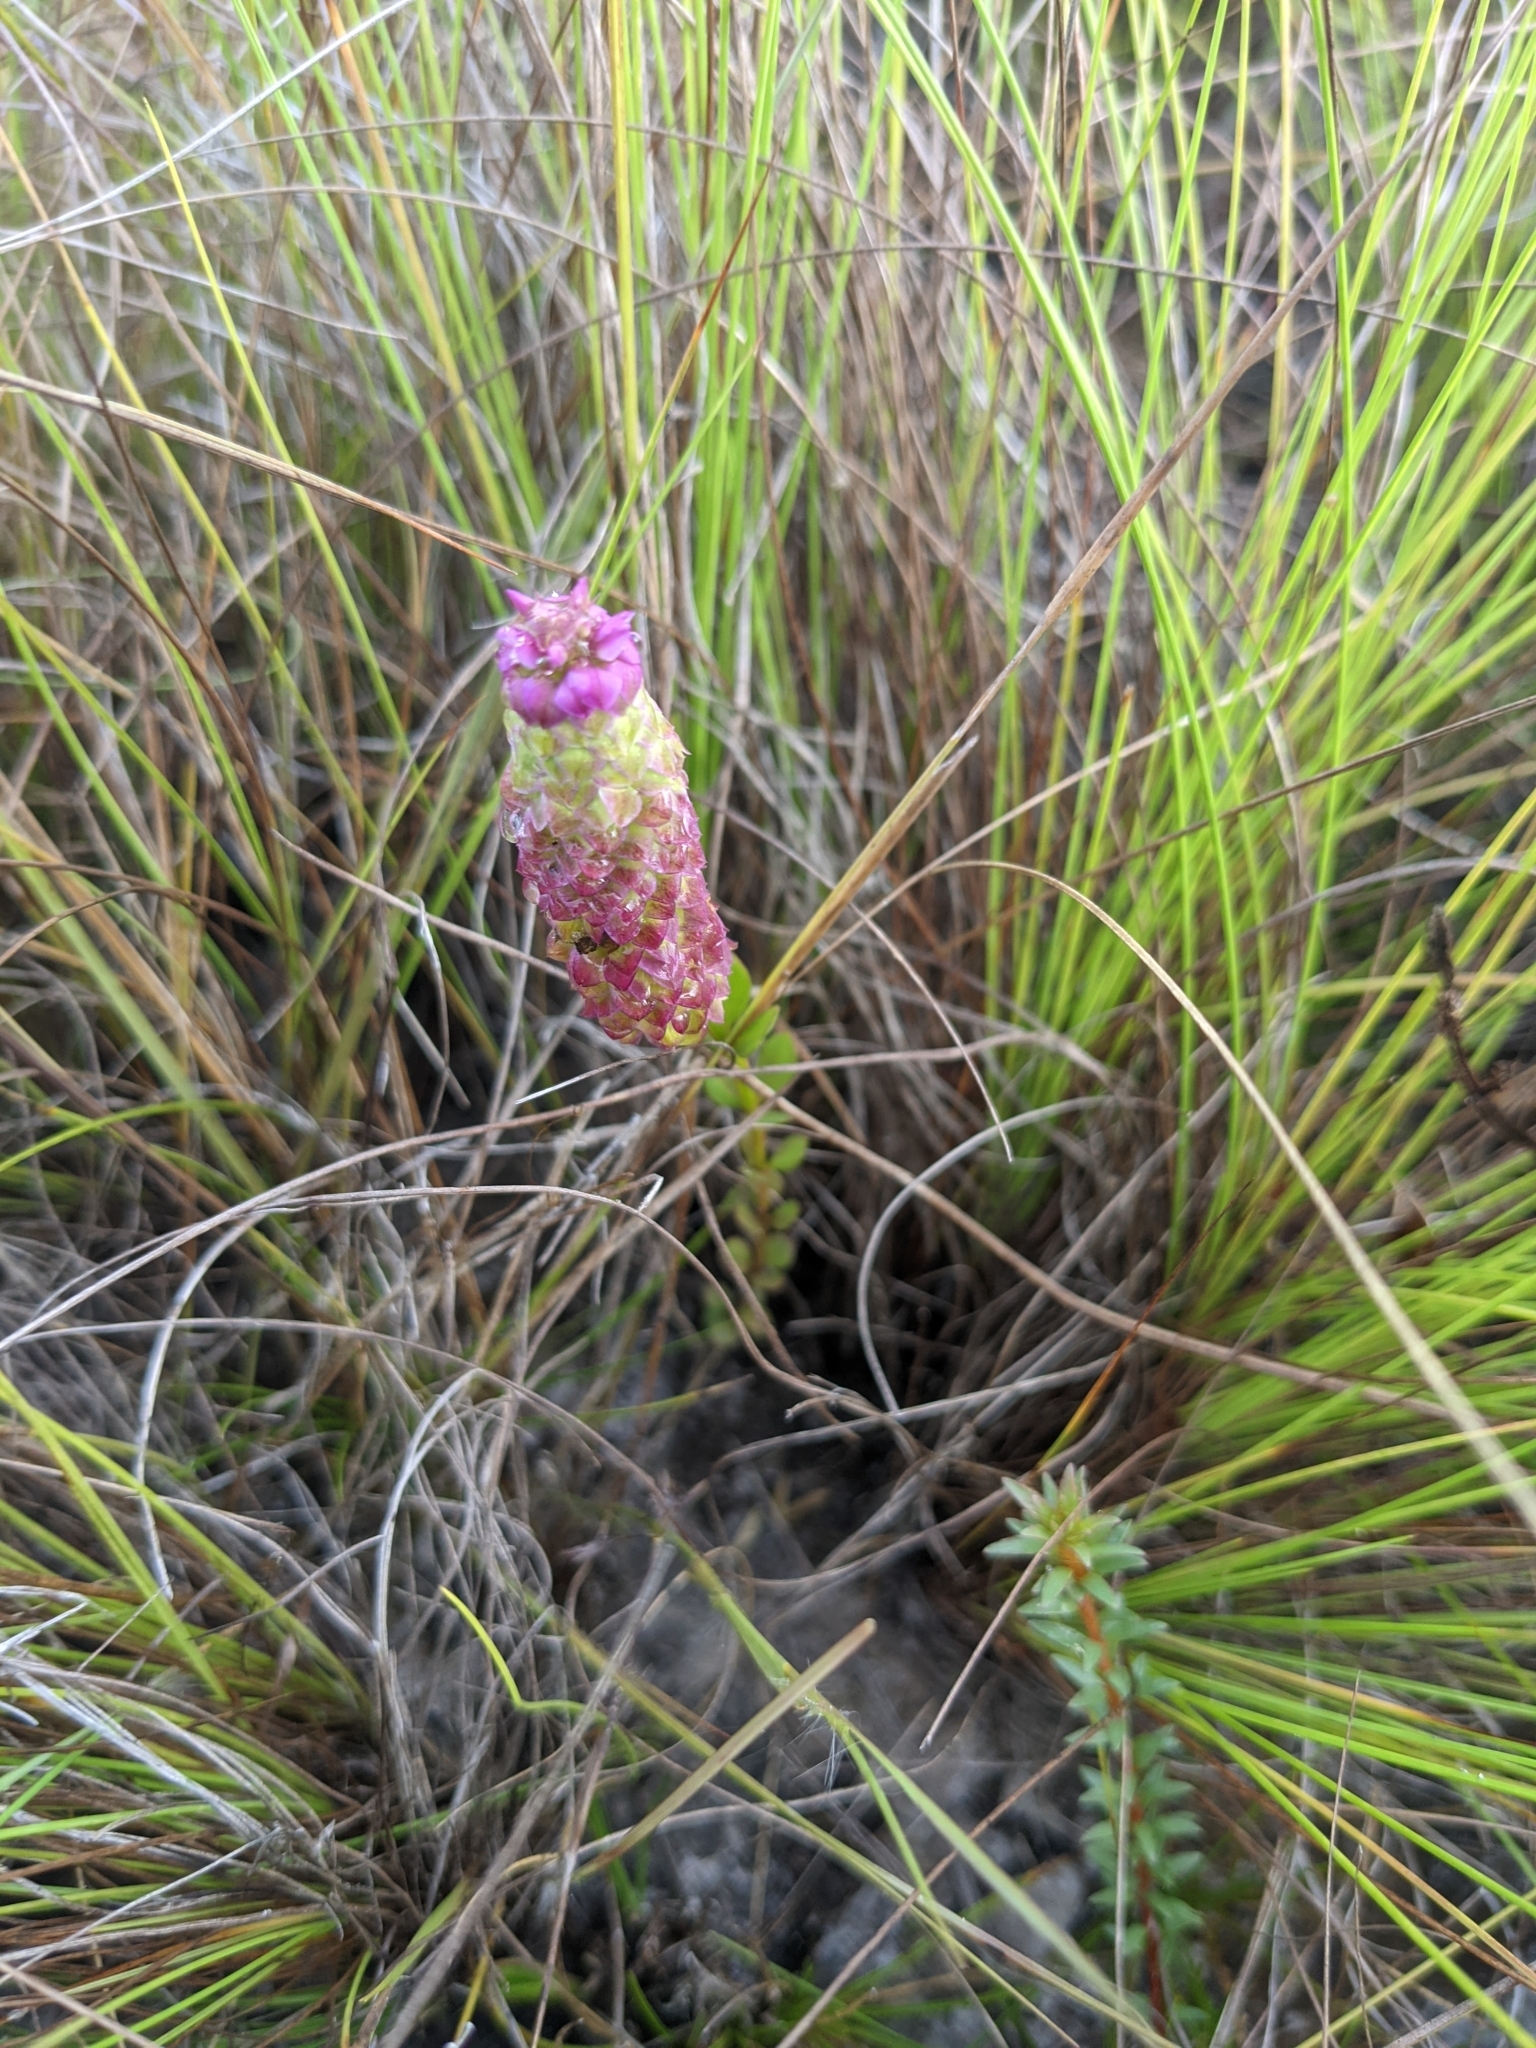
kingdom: Plantae
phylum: Tracheophyta
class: Magnoliopsida
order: Fabales
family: Polygalaceae
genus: Polygala
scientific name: Polygala timoutou
